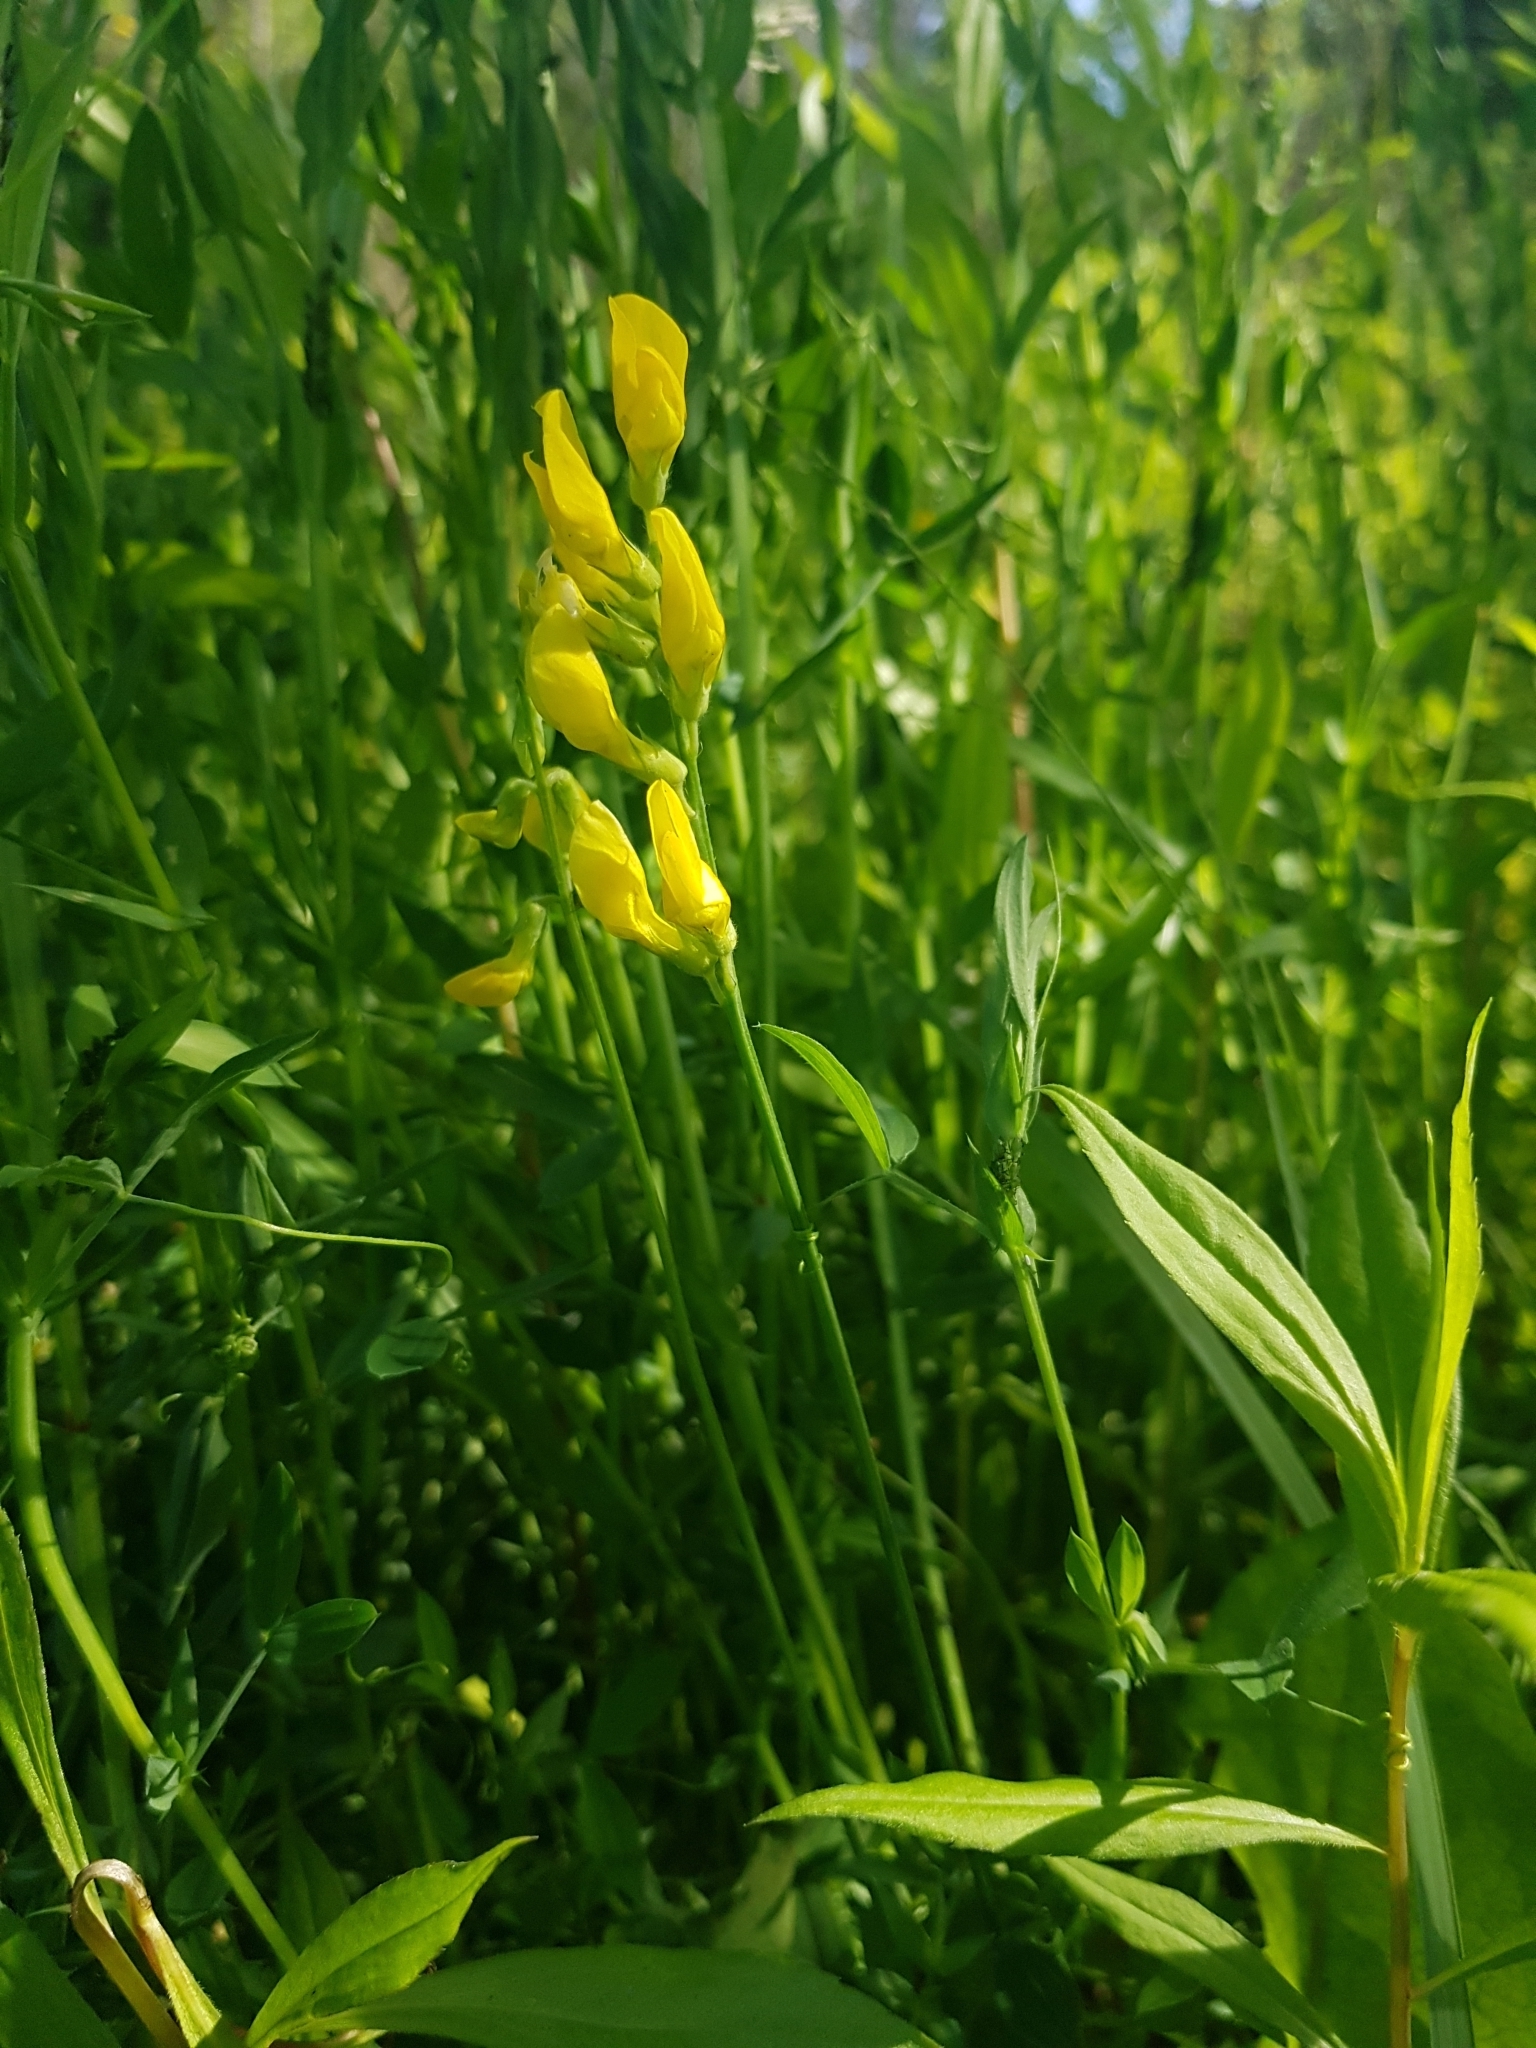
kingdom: Plantae
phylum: Tracheophyta
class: Magnoliopsida
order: Fabales
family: Fabaceae
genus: Lathyrus
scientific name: Lathyrus pratensis
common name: Meadow vetchling
